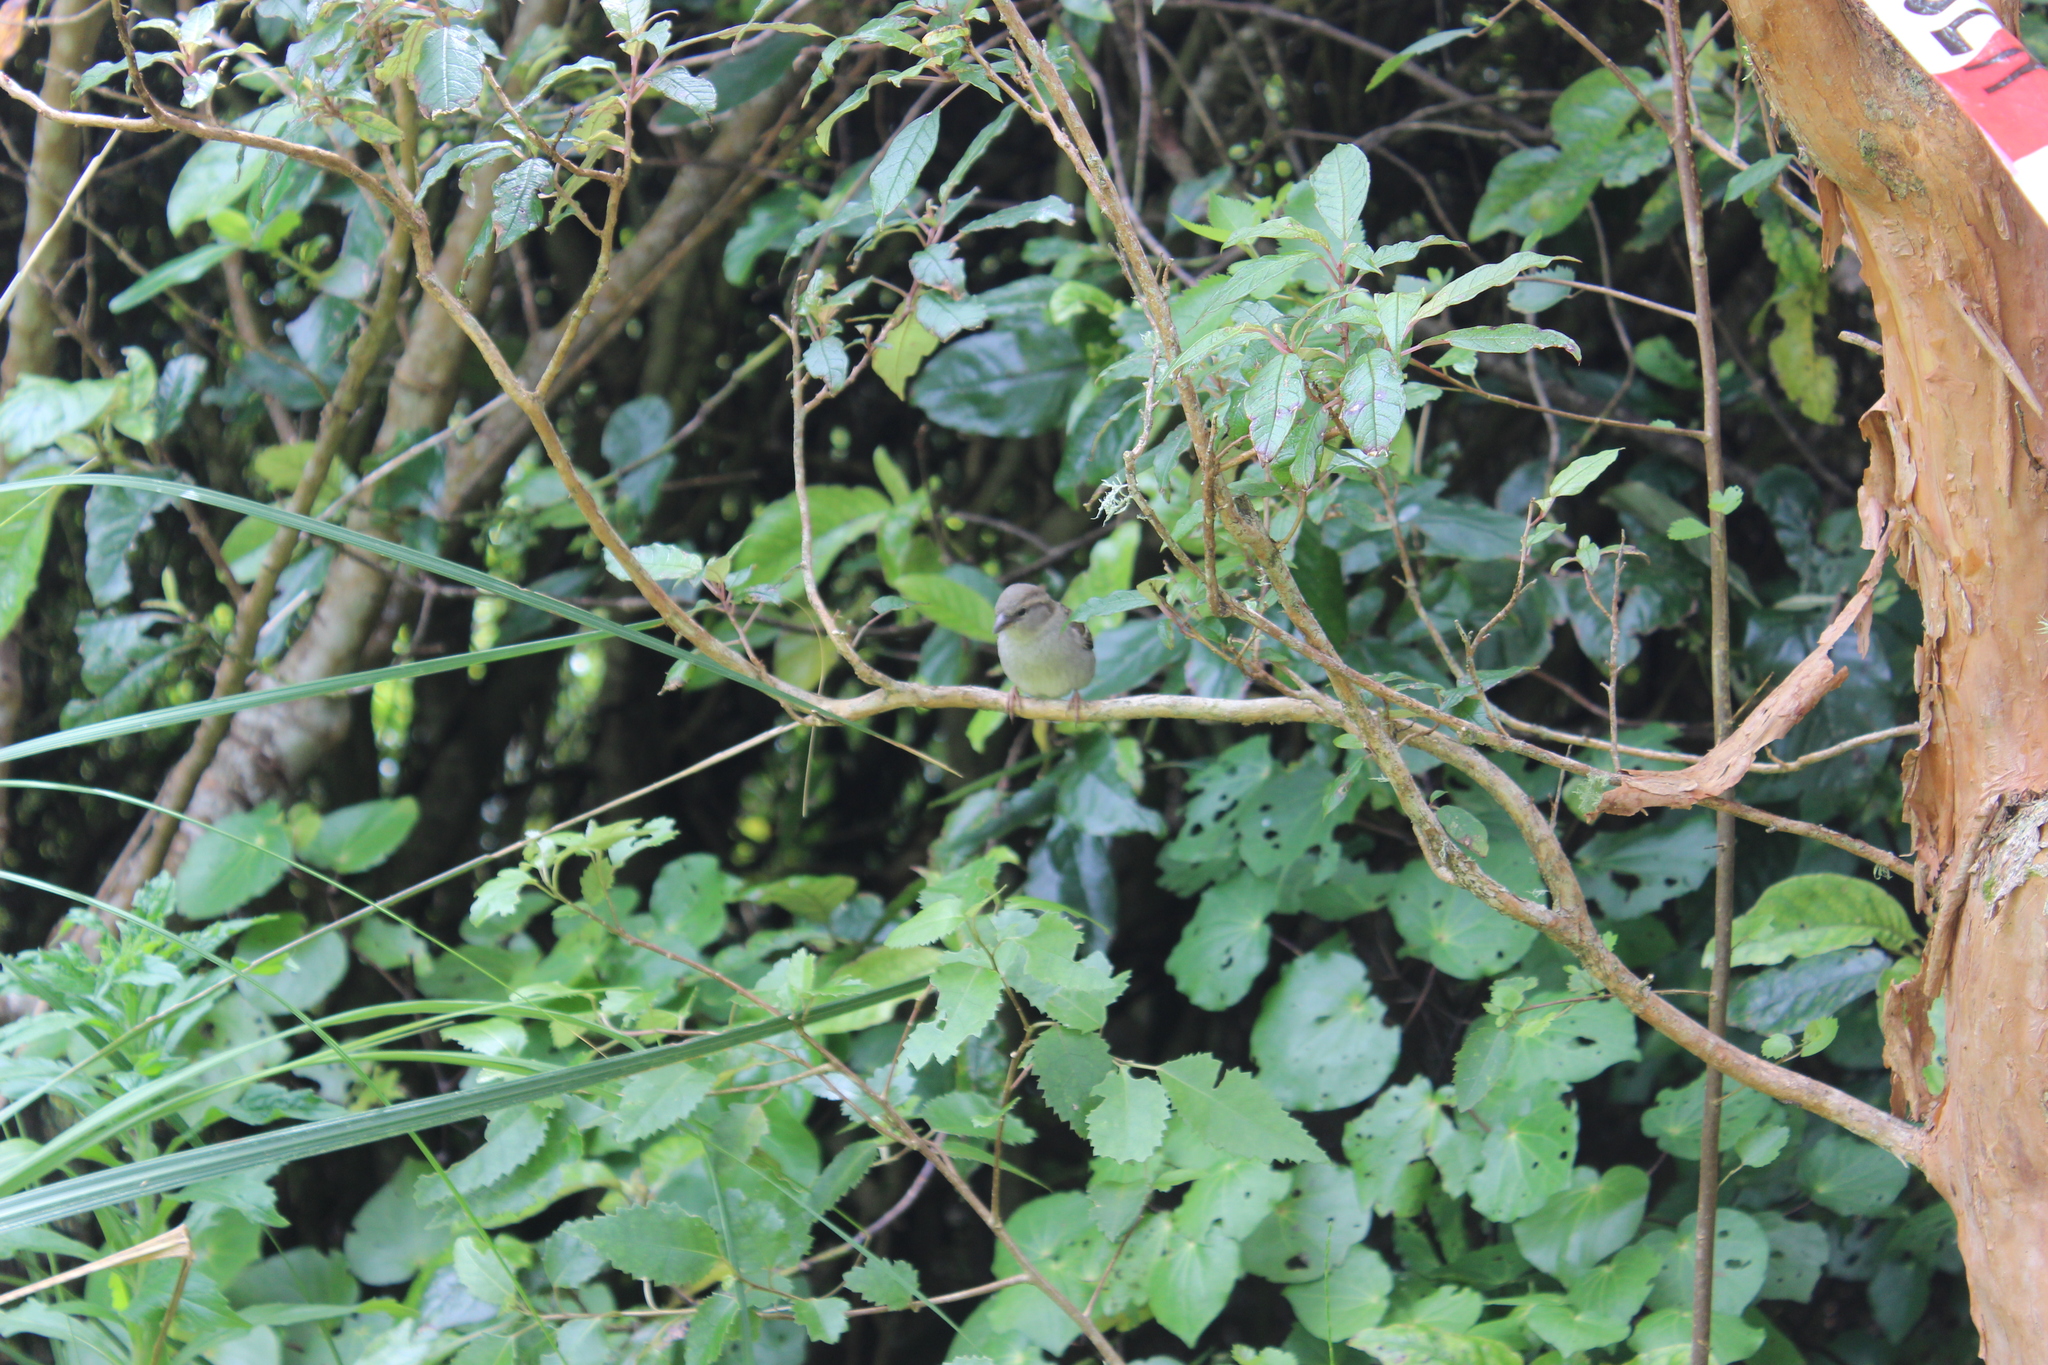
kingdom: Animalia
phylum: Chordata
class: Aves
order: Passeriformes
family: Passeridae
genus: Passer
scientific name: Passer domesticus
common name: House sparrow
